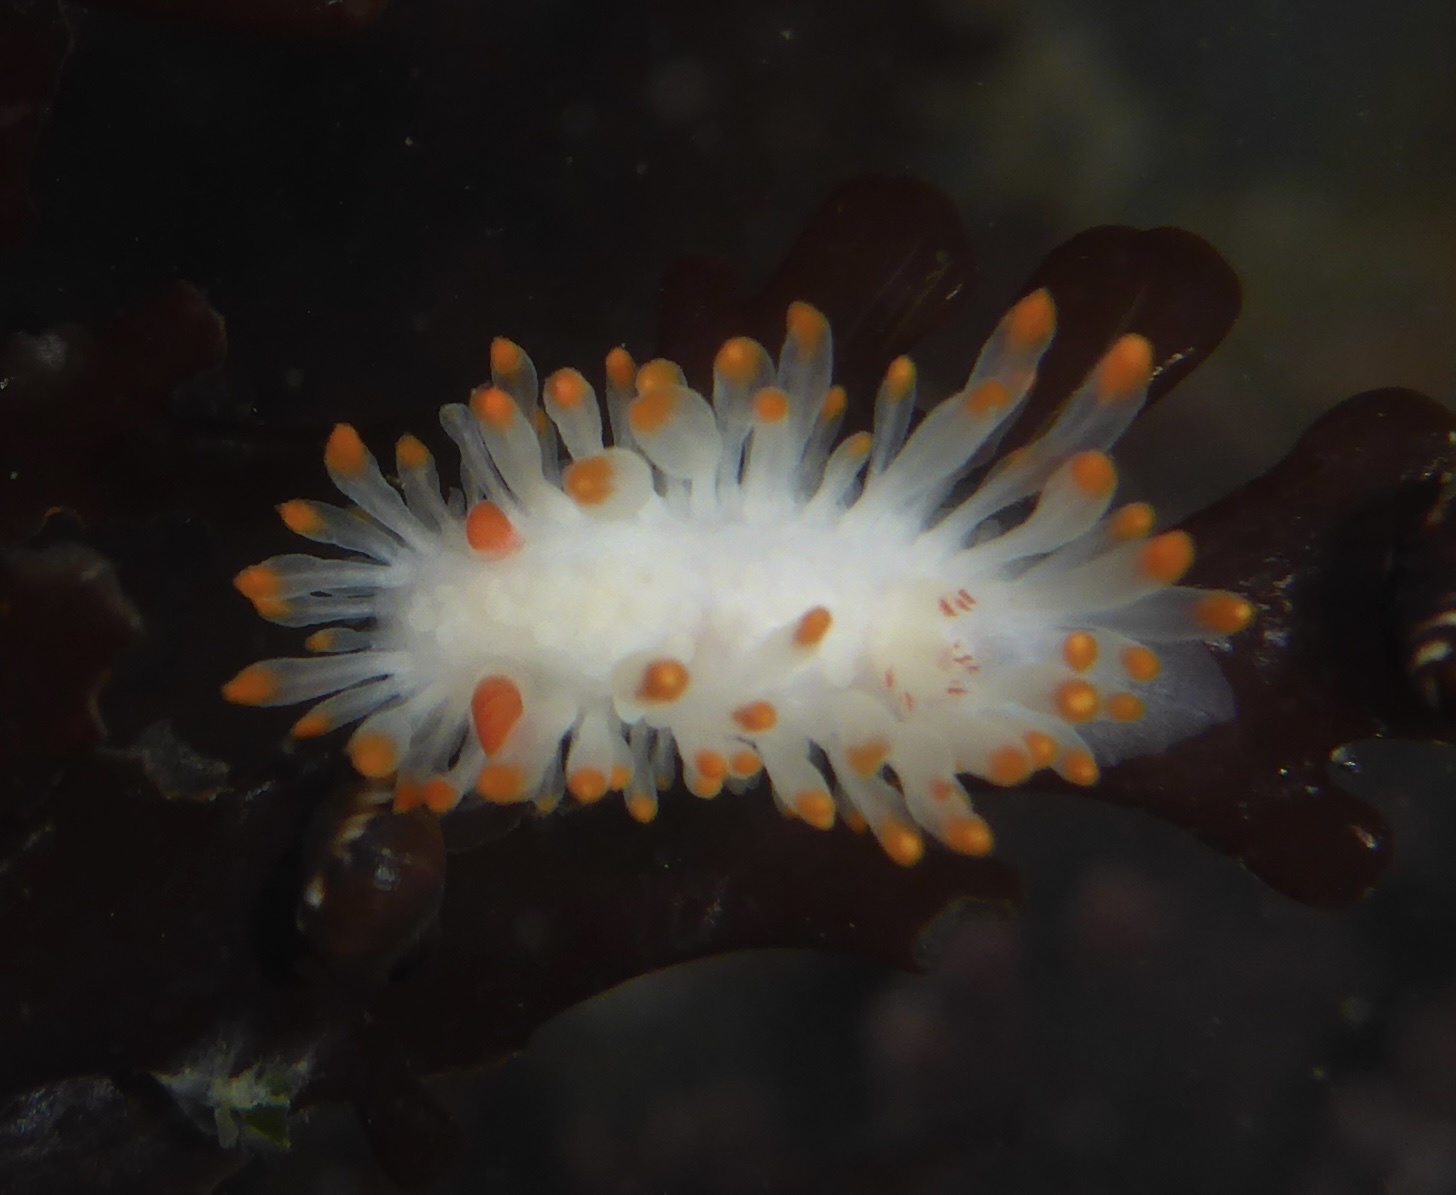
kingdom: Animalia
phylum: Mollusca
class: Gastropoda
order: Nudibranchia
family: Polyceridae
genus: Limacia
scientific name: Limacia cockerelli
